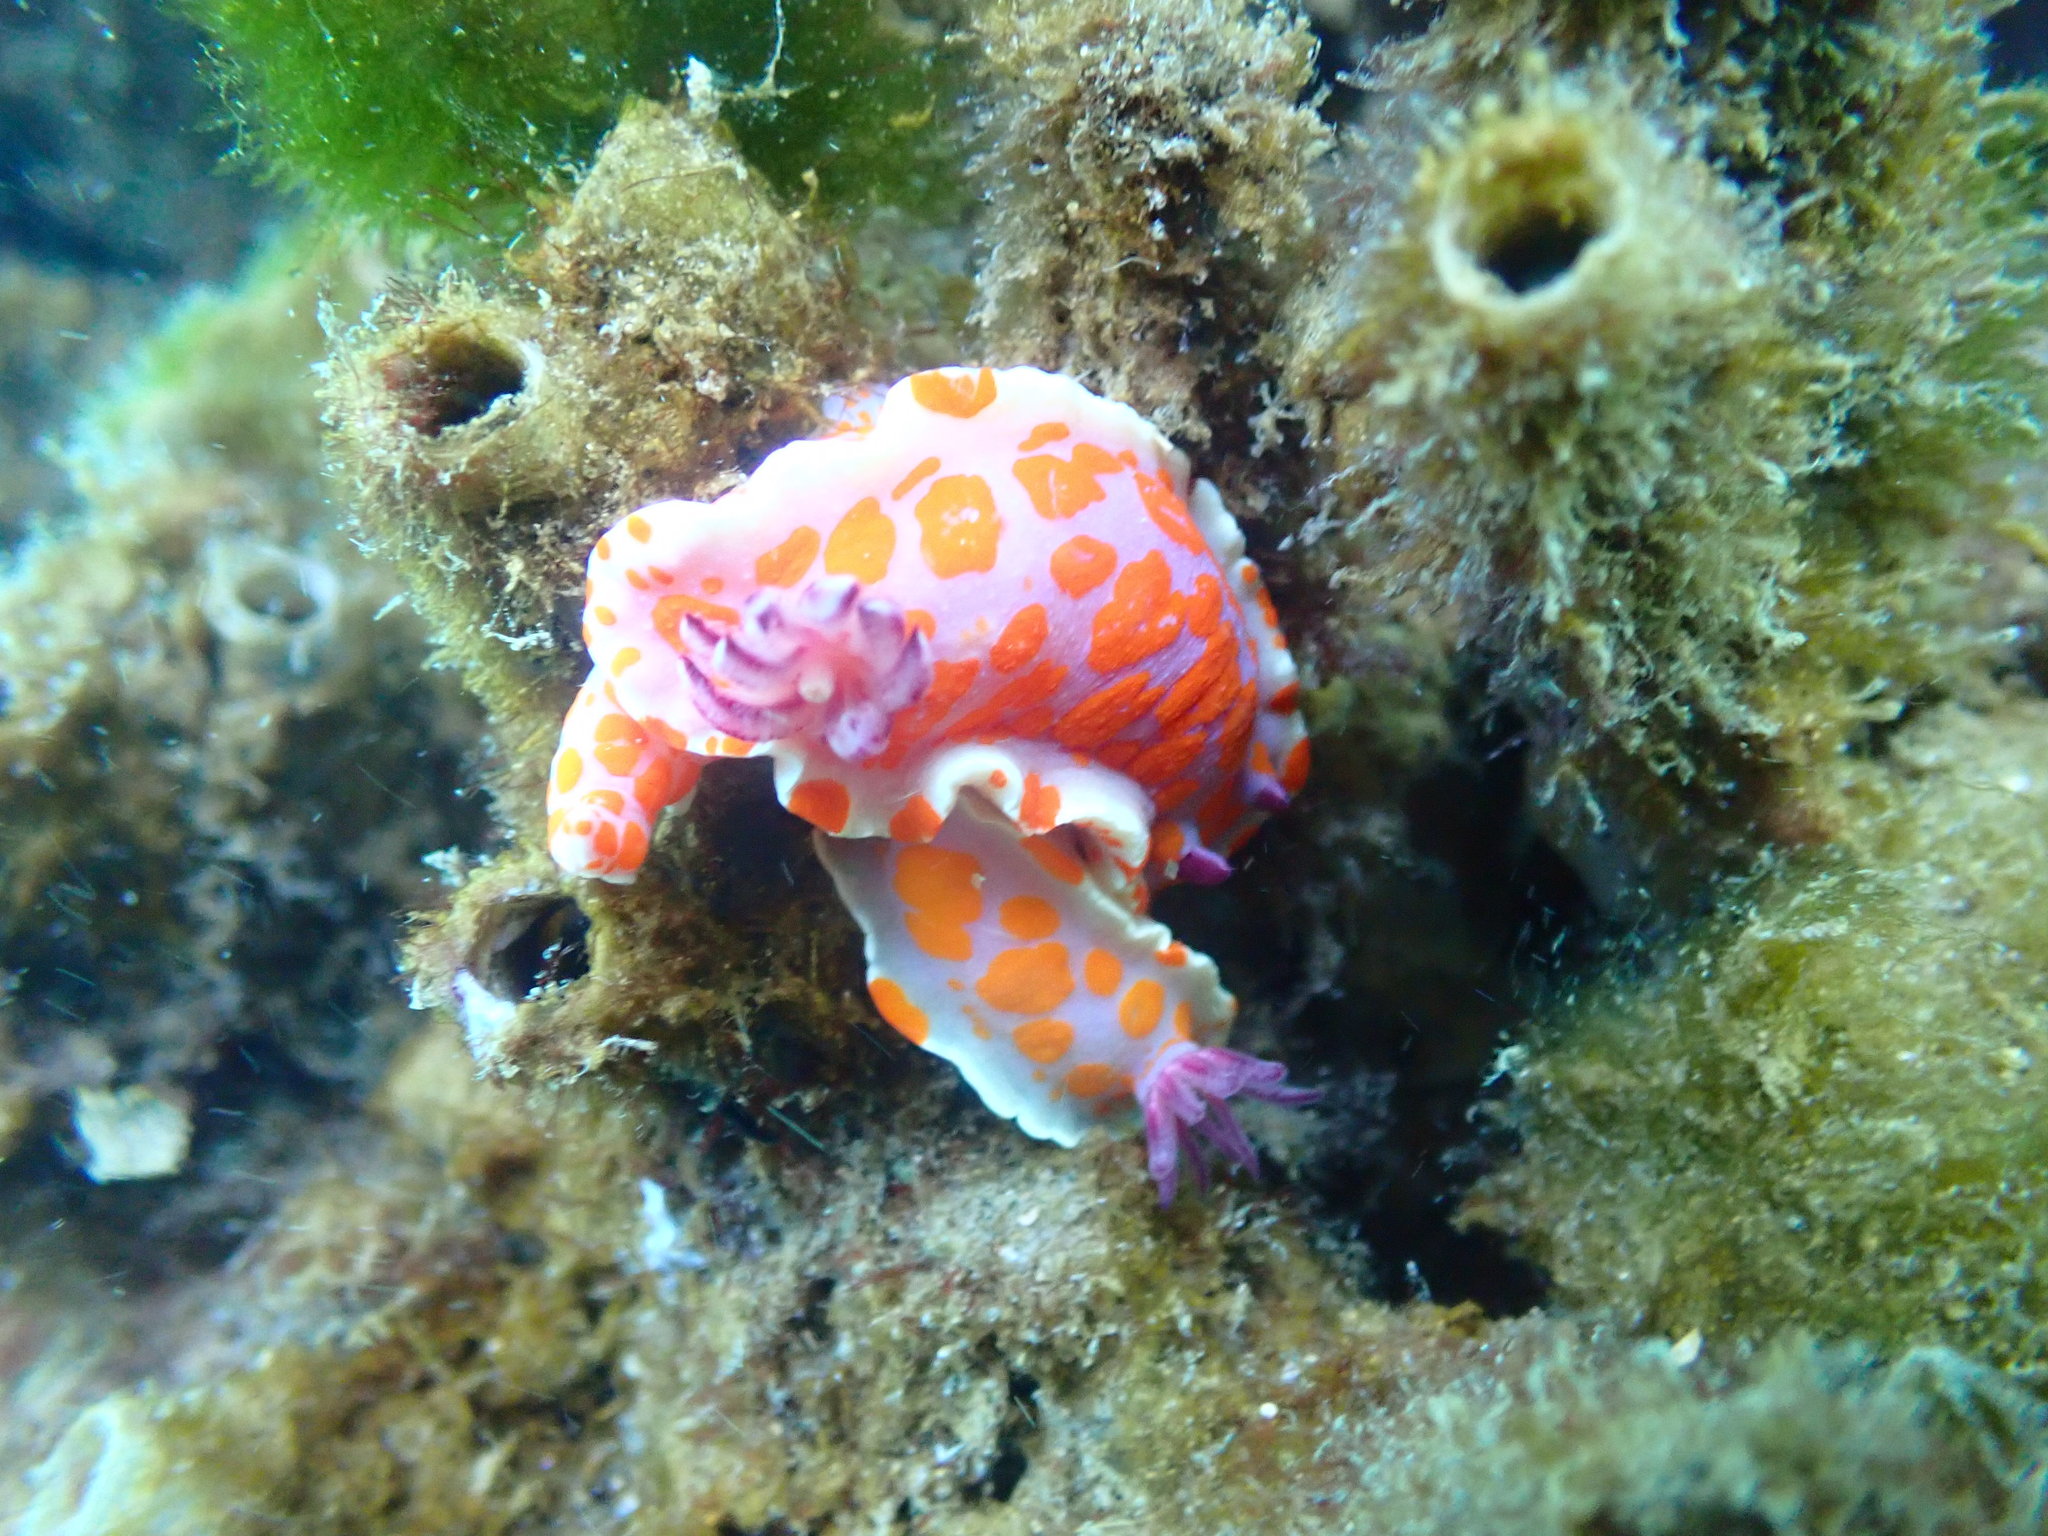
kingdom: Animalia
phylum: Mollusca
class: Gastropoda
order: Nudibranchia
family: Chromodorididae
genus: Ceratosoma
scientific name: Ceratosoma amoenum
